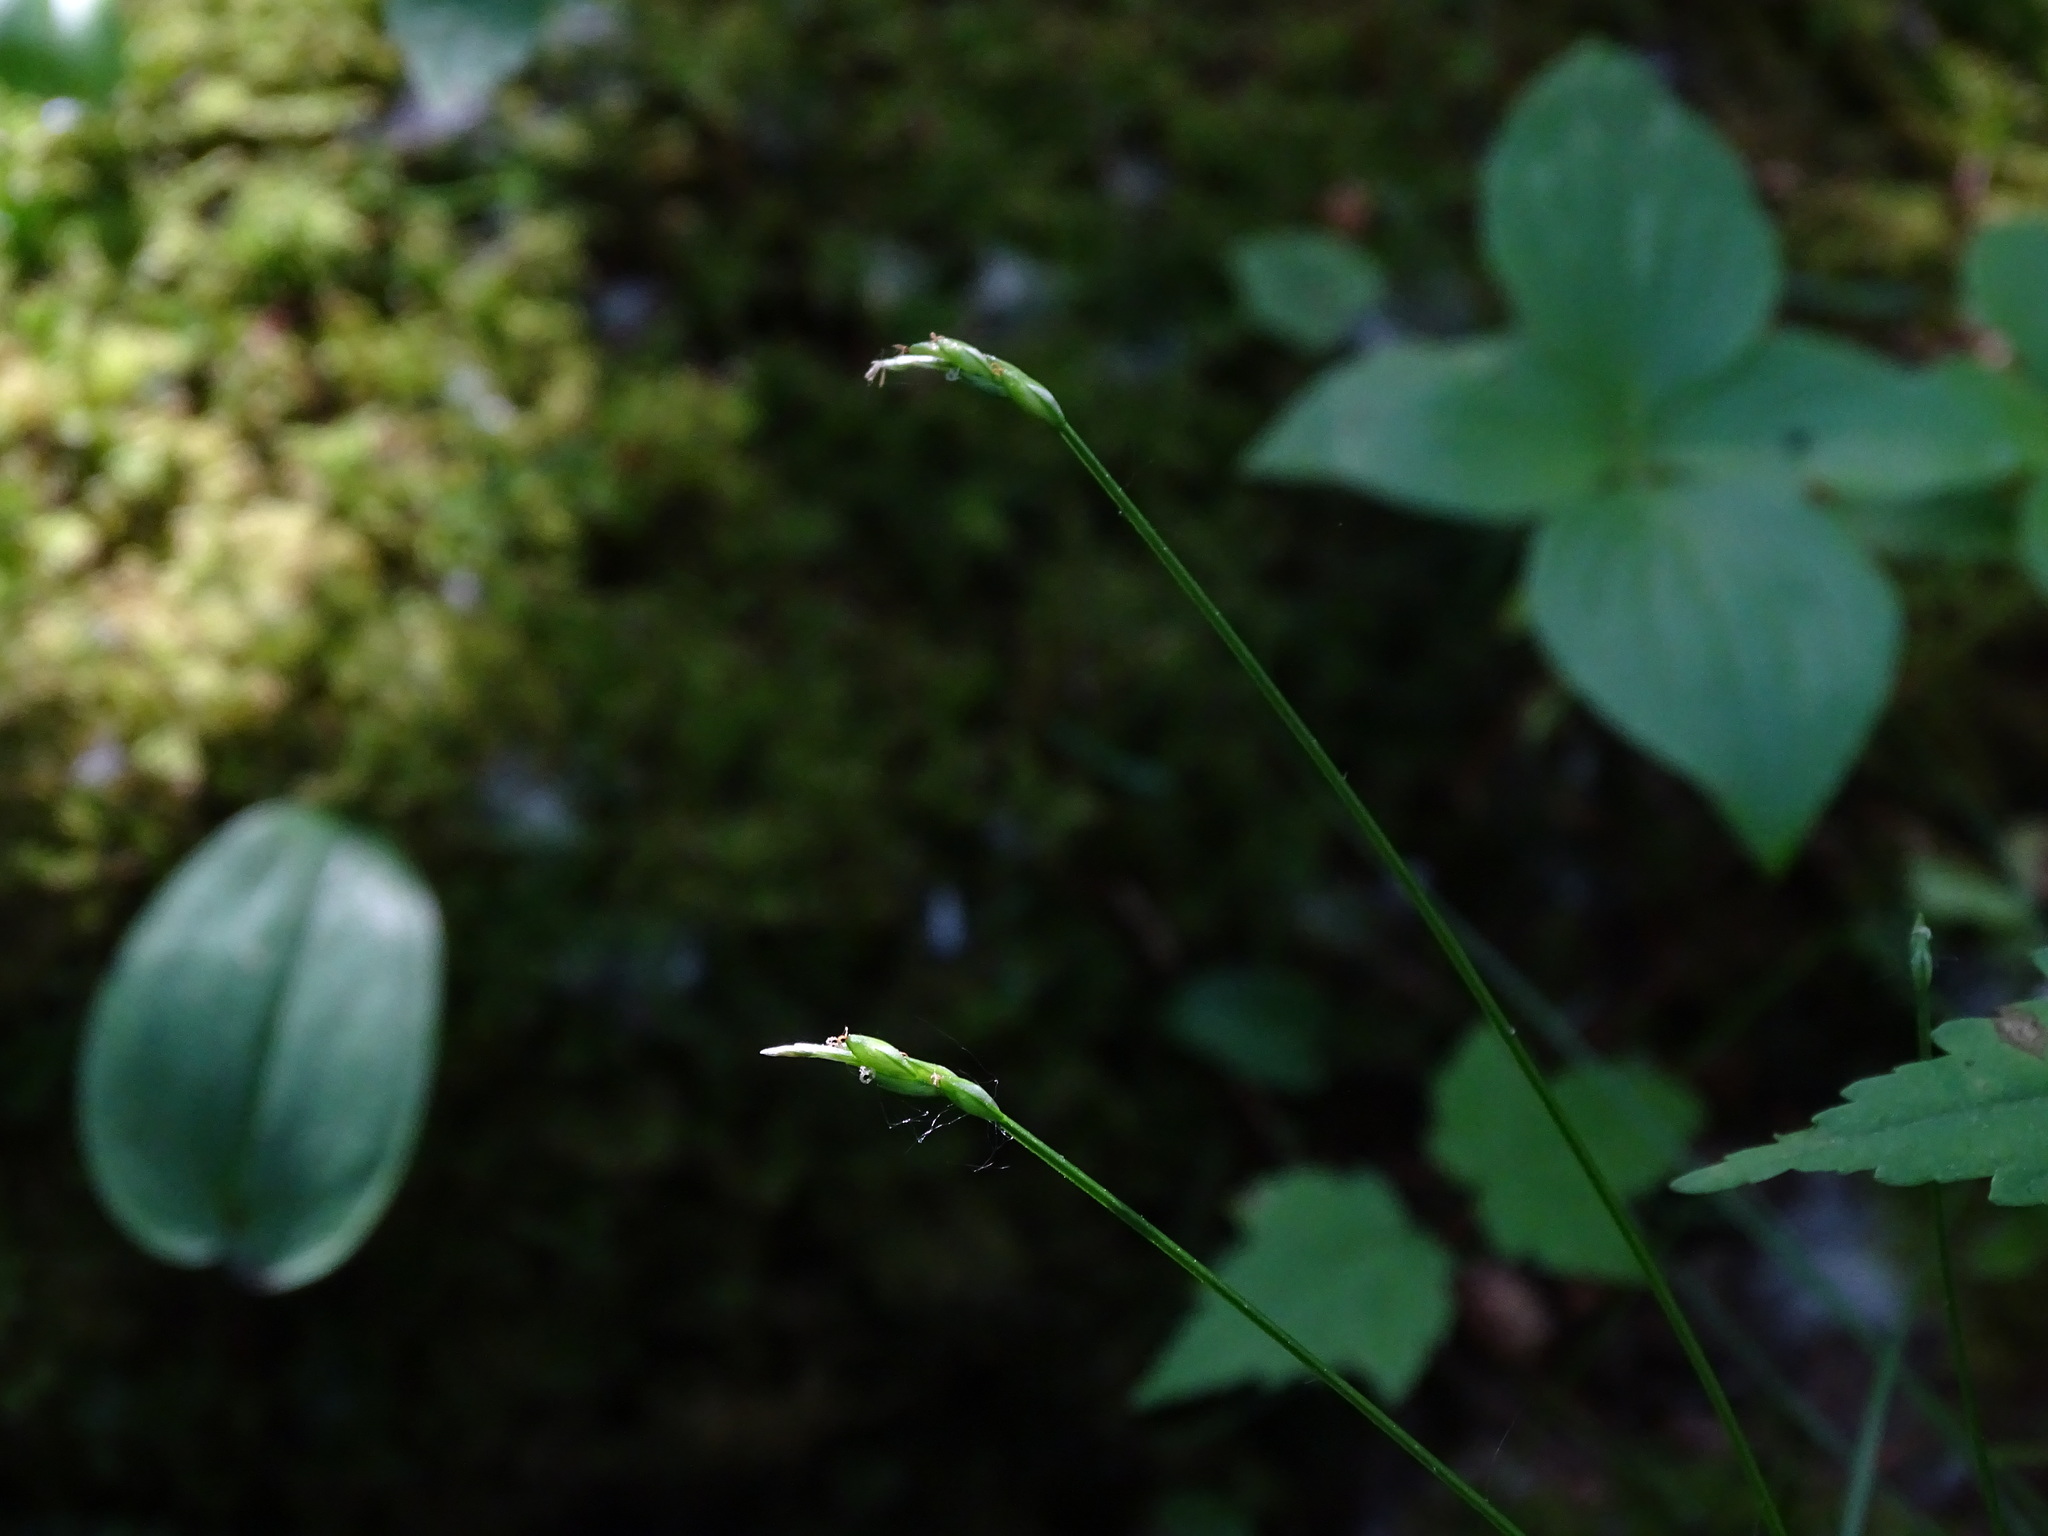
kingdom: Plantae
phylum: Tracheophyta
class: Liliopsida
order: Poales
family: Cyperaceae
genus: Carex
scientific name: Carex leptalea
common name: Bristly-stalked sedge
